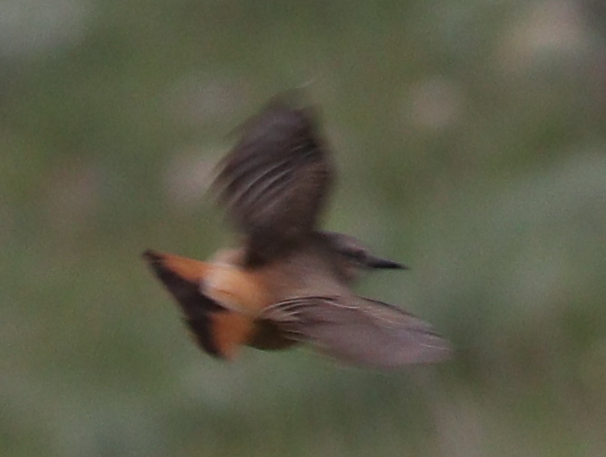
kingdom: Animalia
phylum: Chordata
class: Aves
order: Passeriformes
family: Muscicapidae
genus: Oenanthe
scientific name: Oenanthe chrysopygia
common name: Red-tailed wheatear
